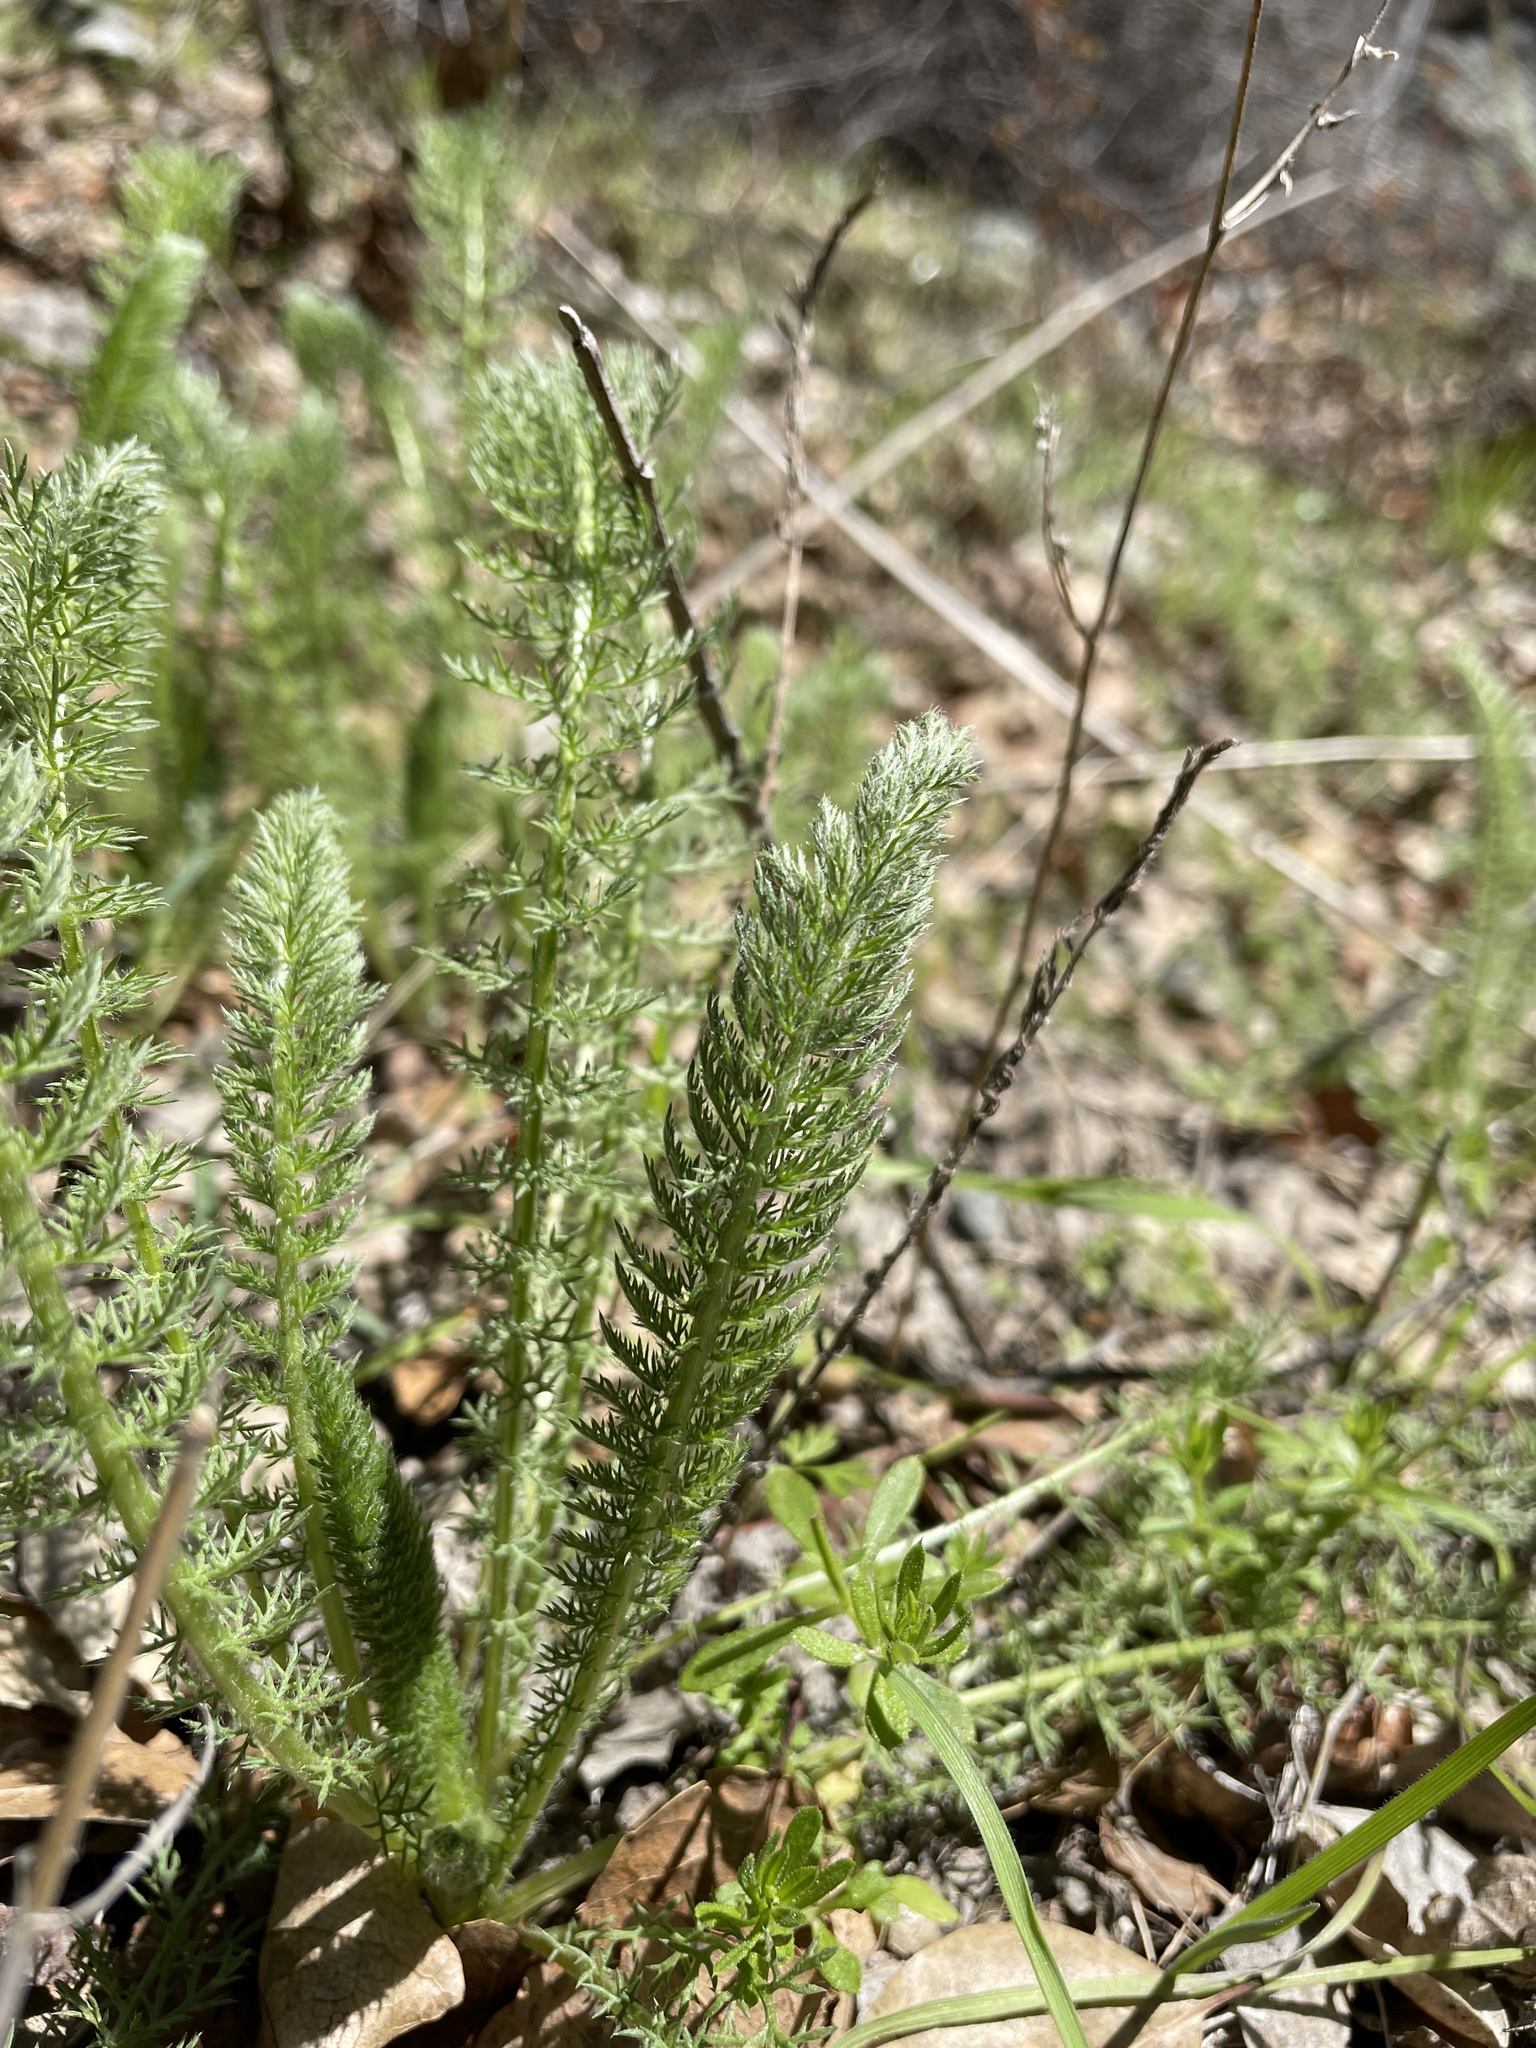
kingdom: Plantae
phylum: Tracheophyta
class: Magnoliopsida
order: Asterales
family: Asteraceae
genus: Achillea
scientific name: Achillea millefolium
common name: Yarrow
